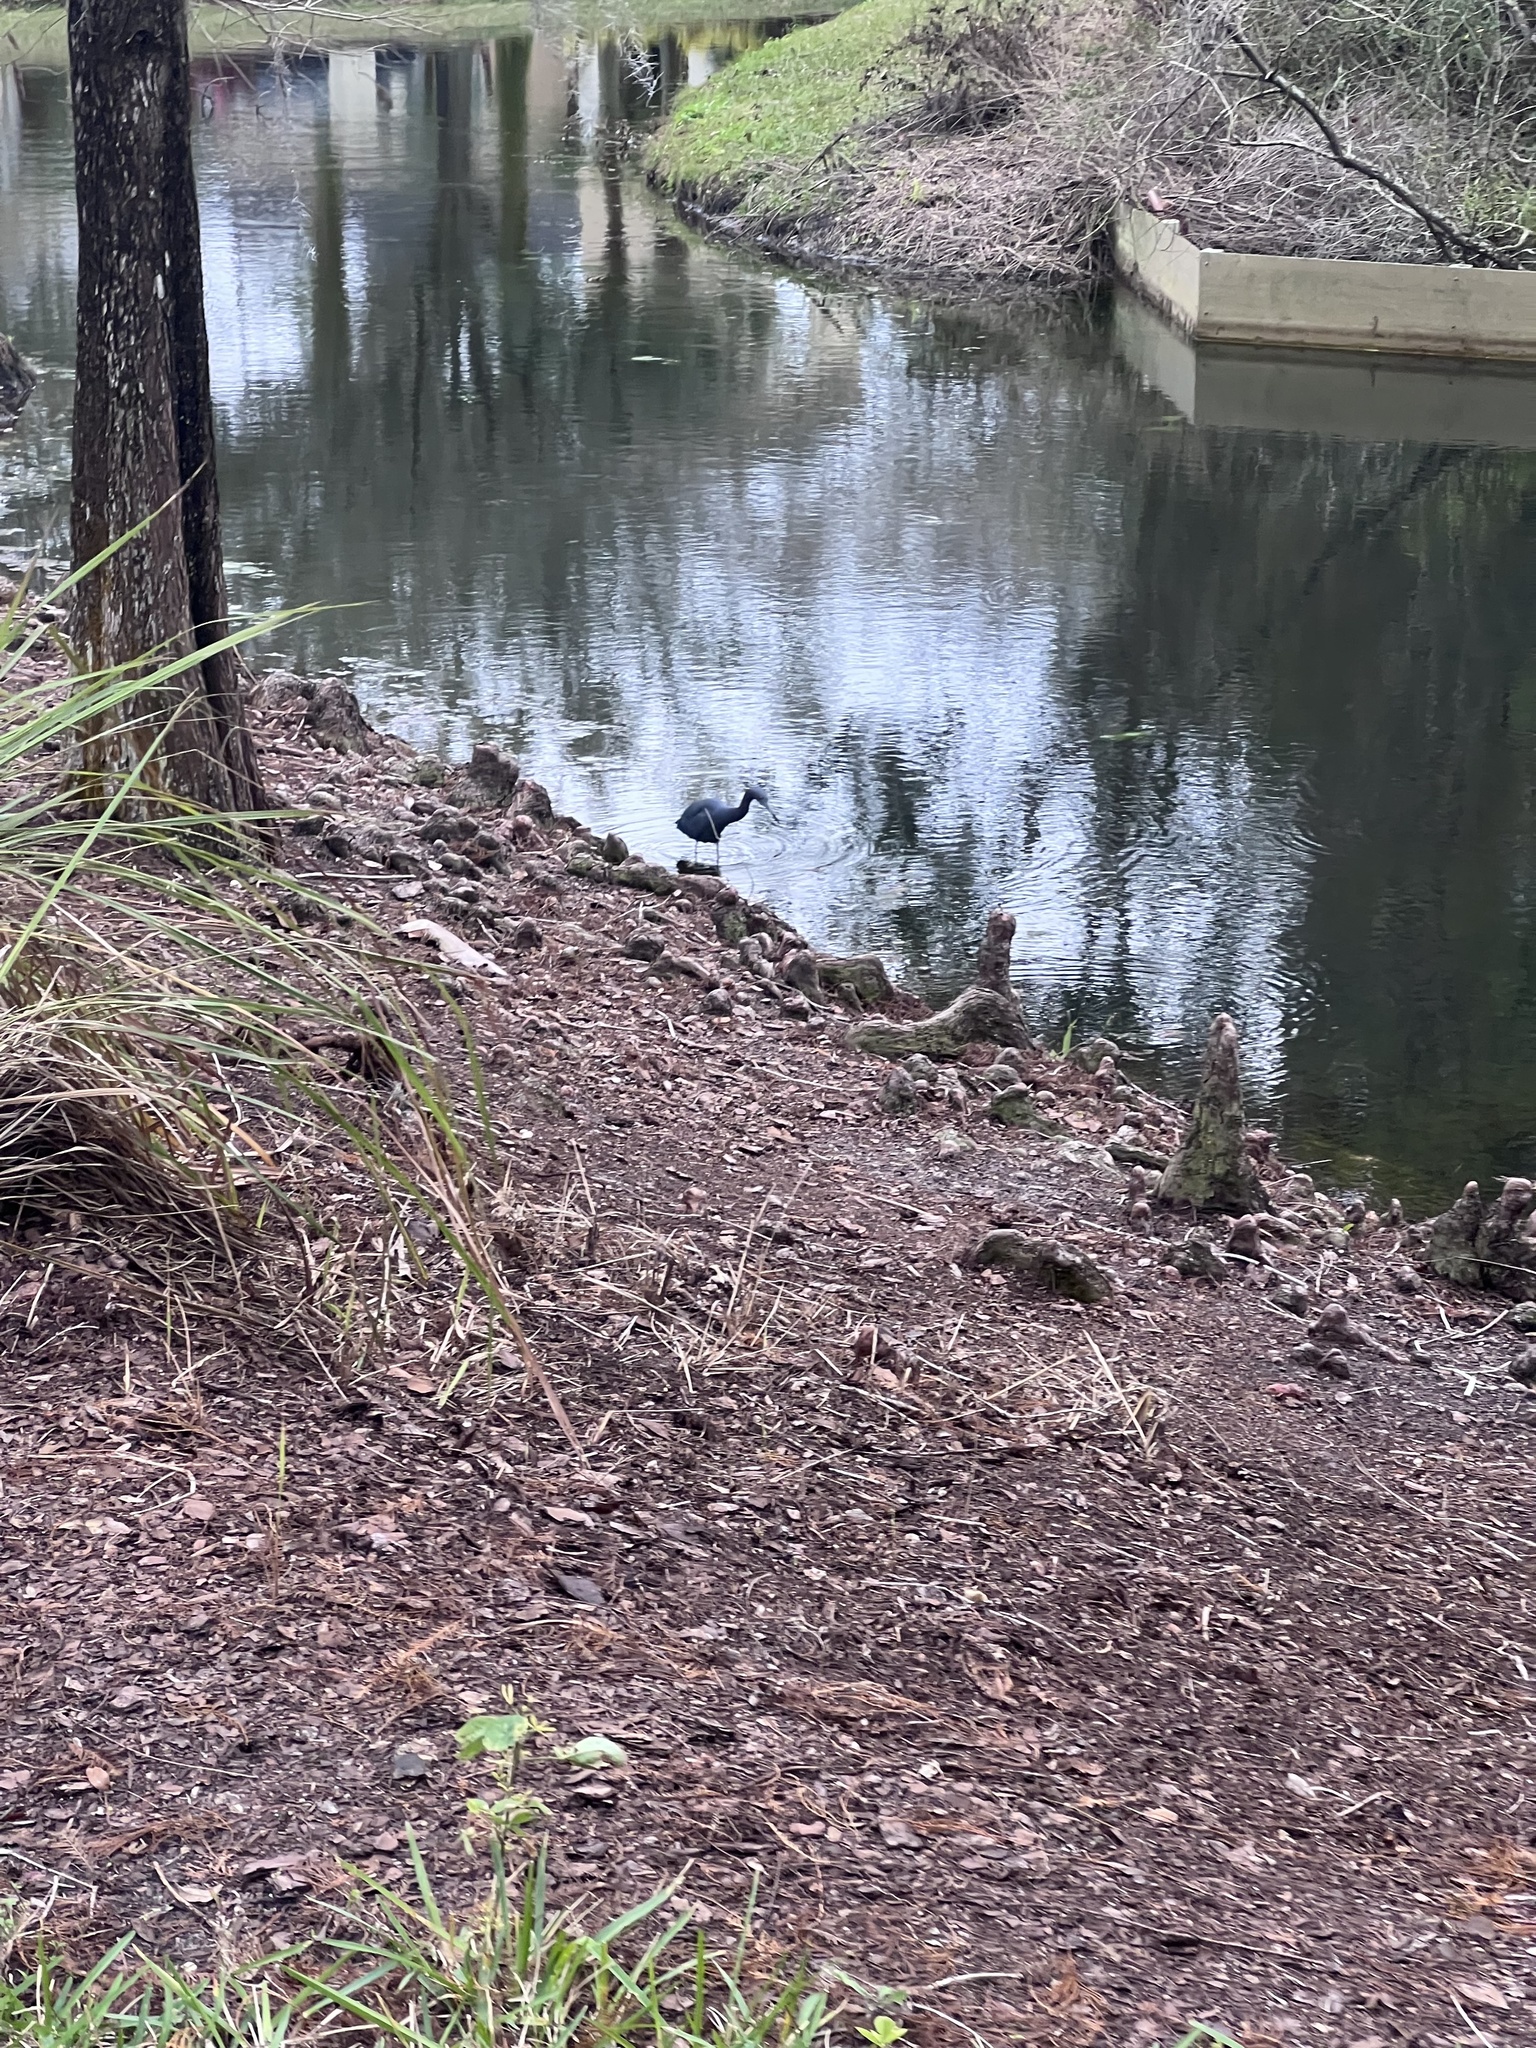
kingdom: Animalia
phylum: Chordata
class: Aves
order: Pelecaniformes
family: Ardeidae
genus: Egretta
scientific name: Egretta caerulea
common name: Little blue heron
